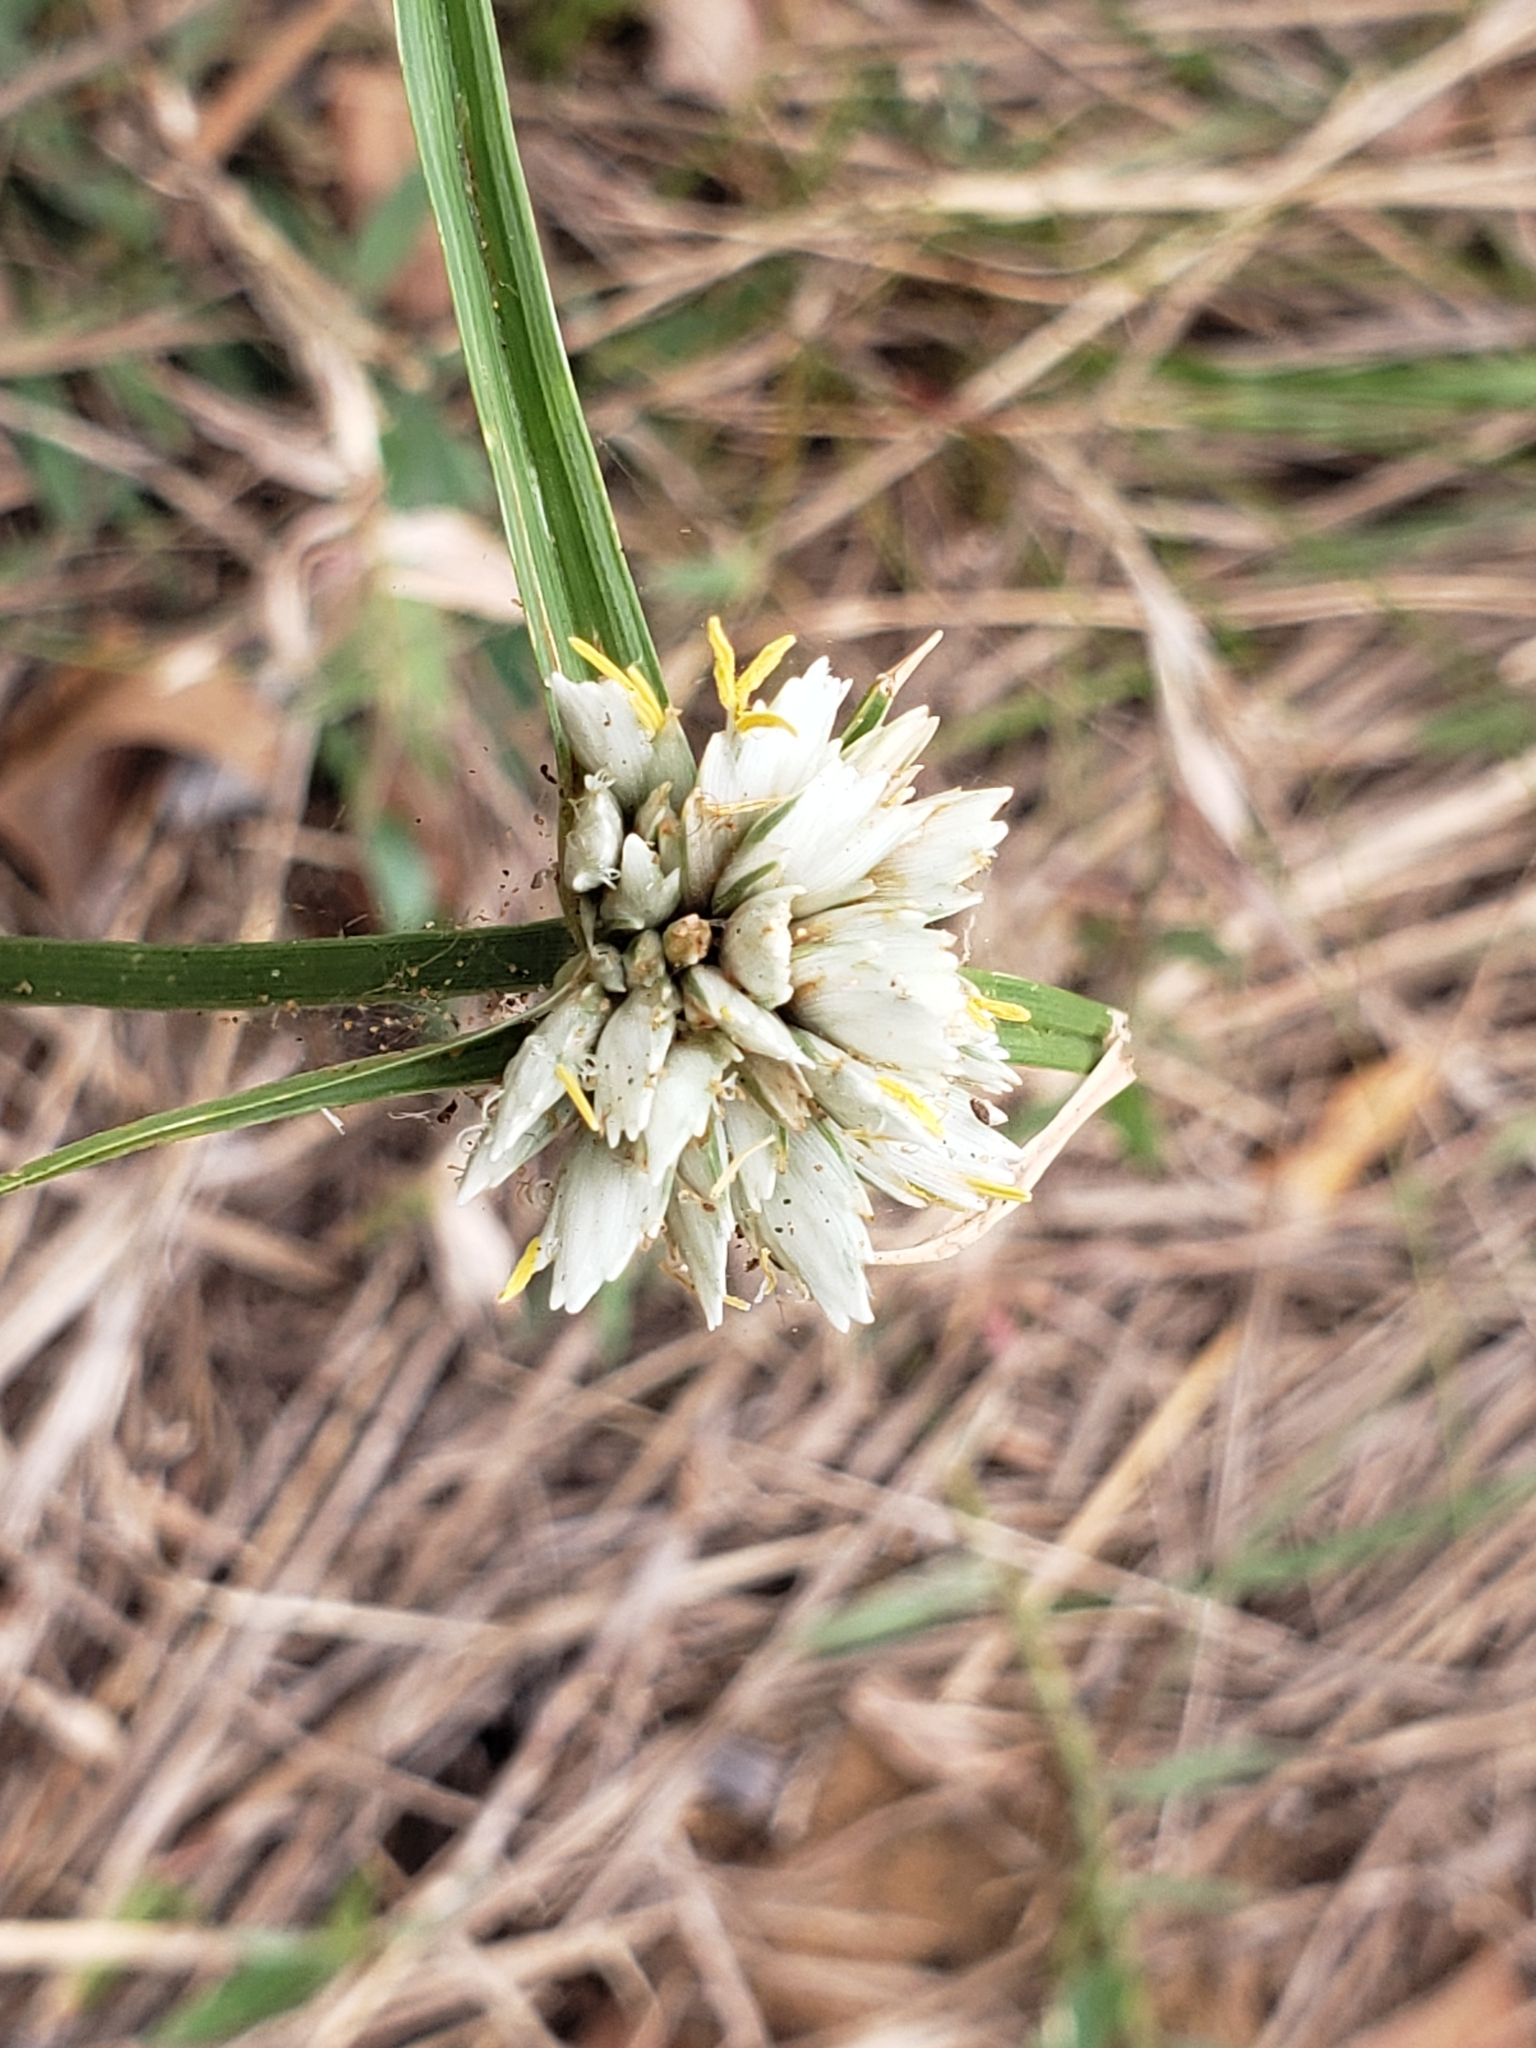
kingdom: Plantae
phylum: Tracheophyta
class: Liliopsida
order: Poales
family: Cyperaceae
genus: Cyperus
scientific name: Cyperus niveus
